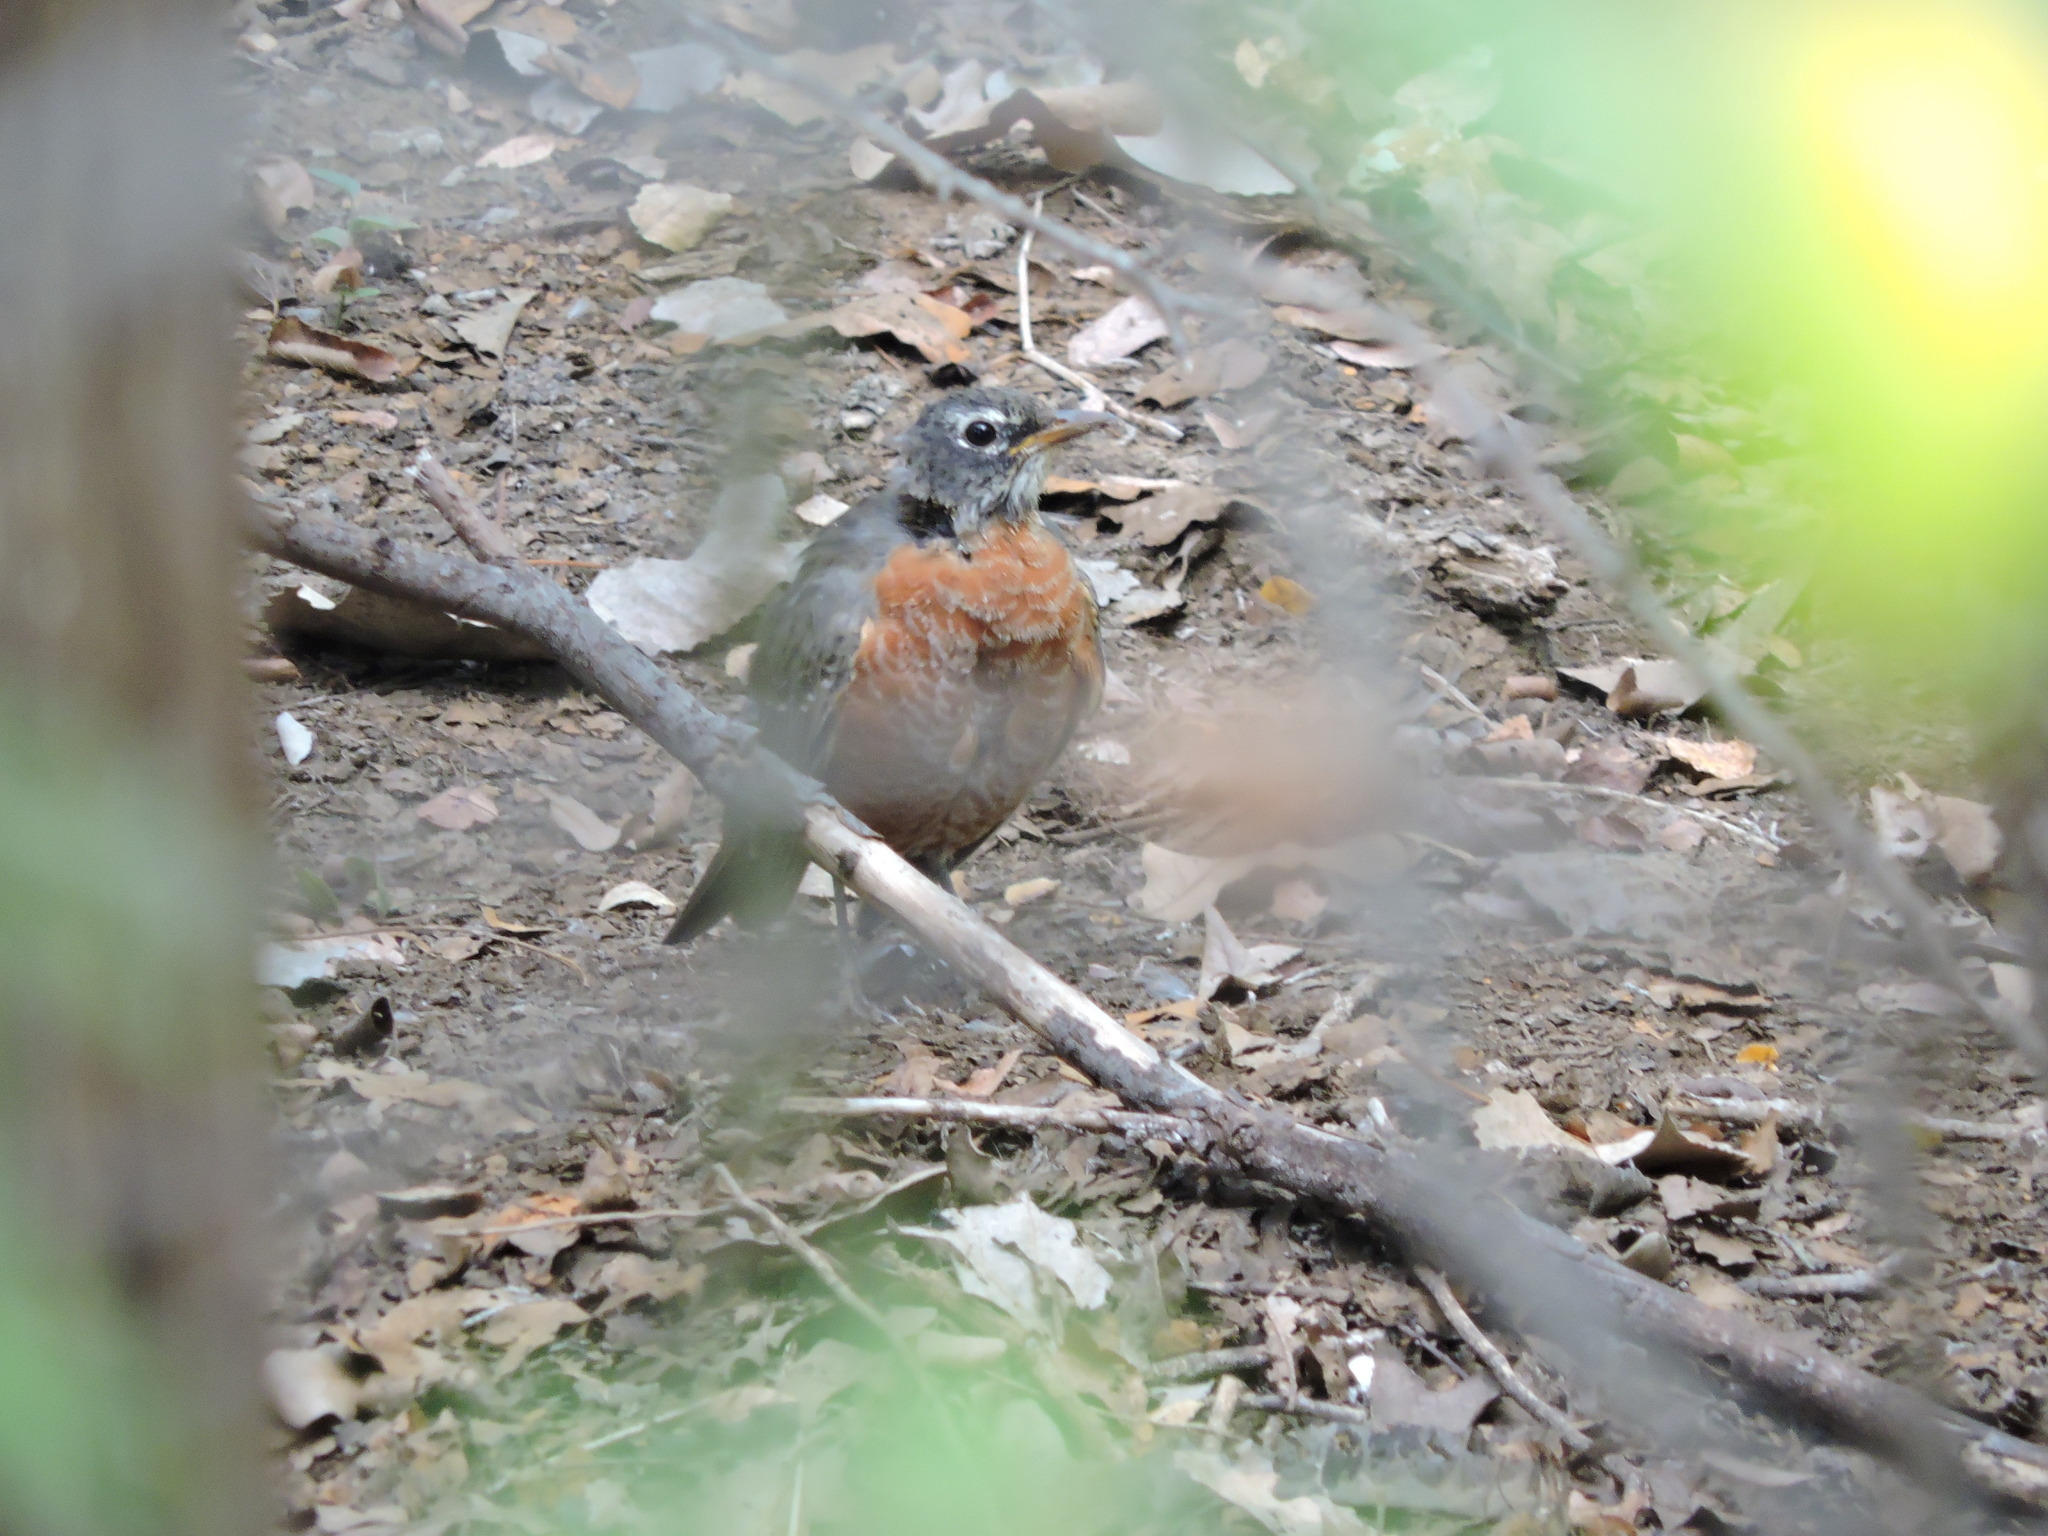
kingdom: Animalia
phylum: Chordata
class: Aves
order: Passeriformes
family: Turdidae
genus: Turdus
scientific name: Turdus migratorius
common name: American robin
